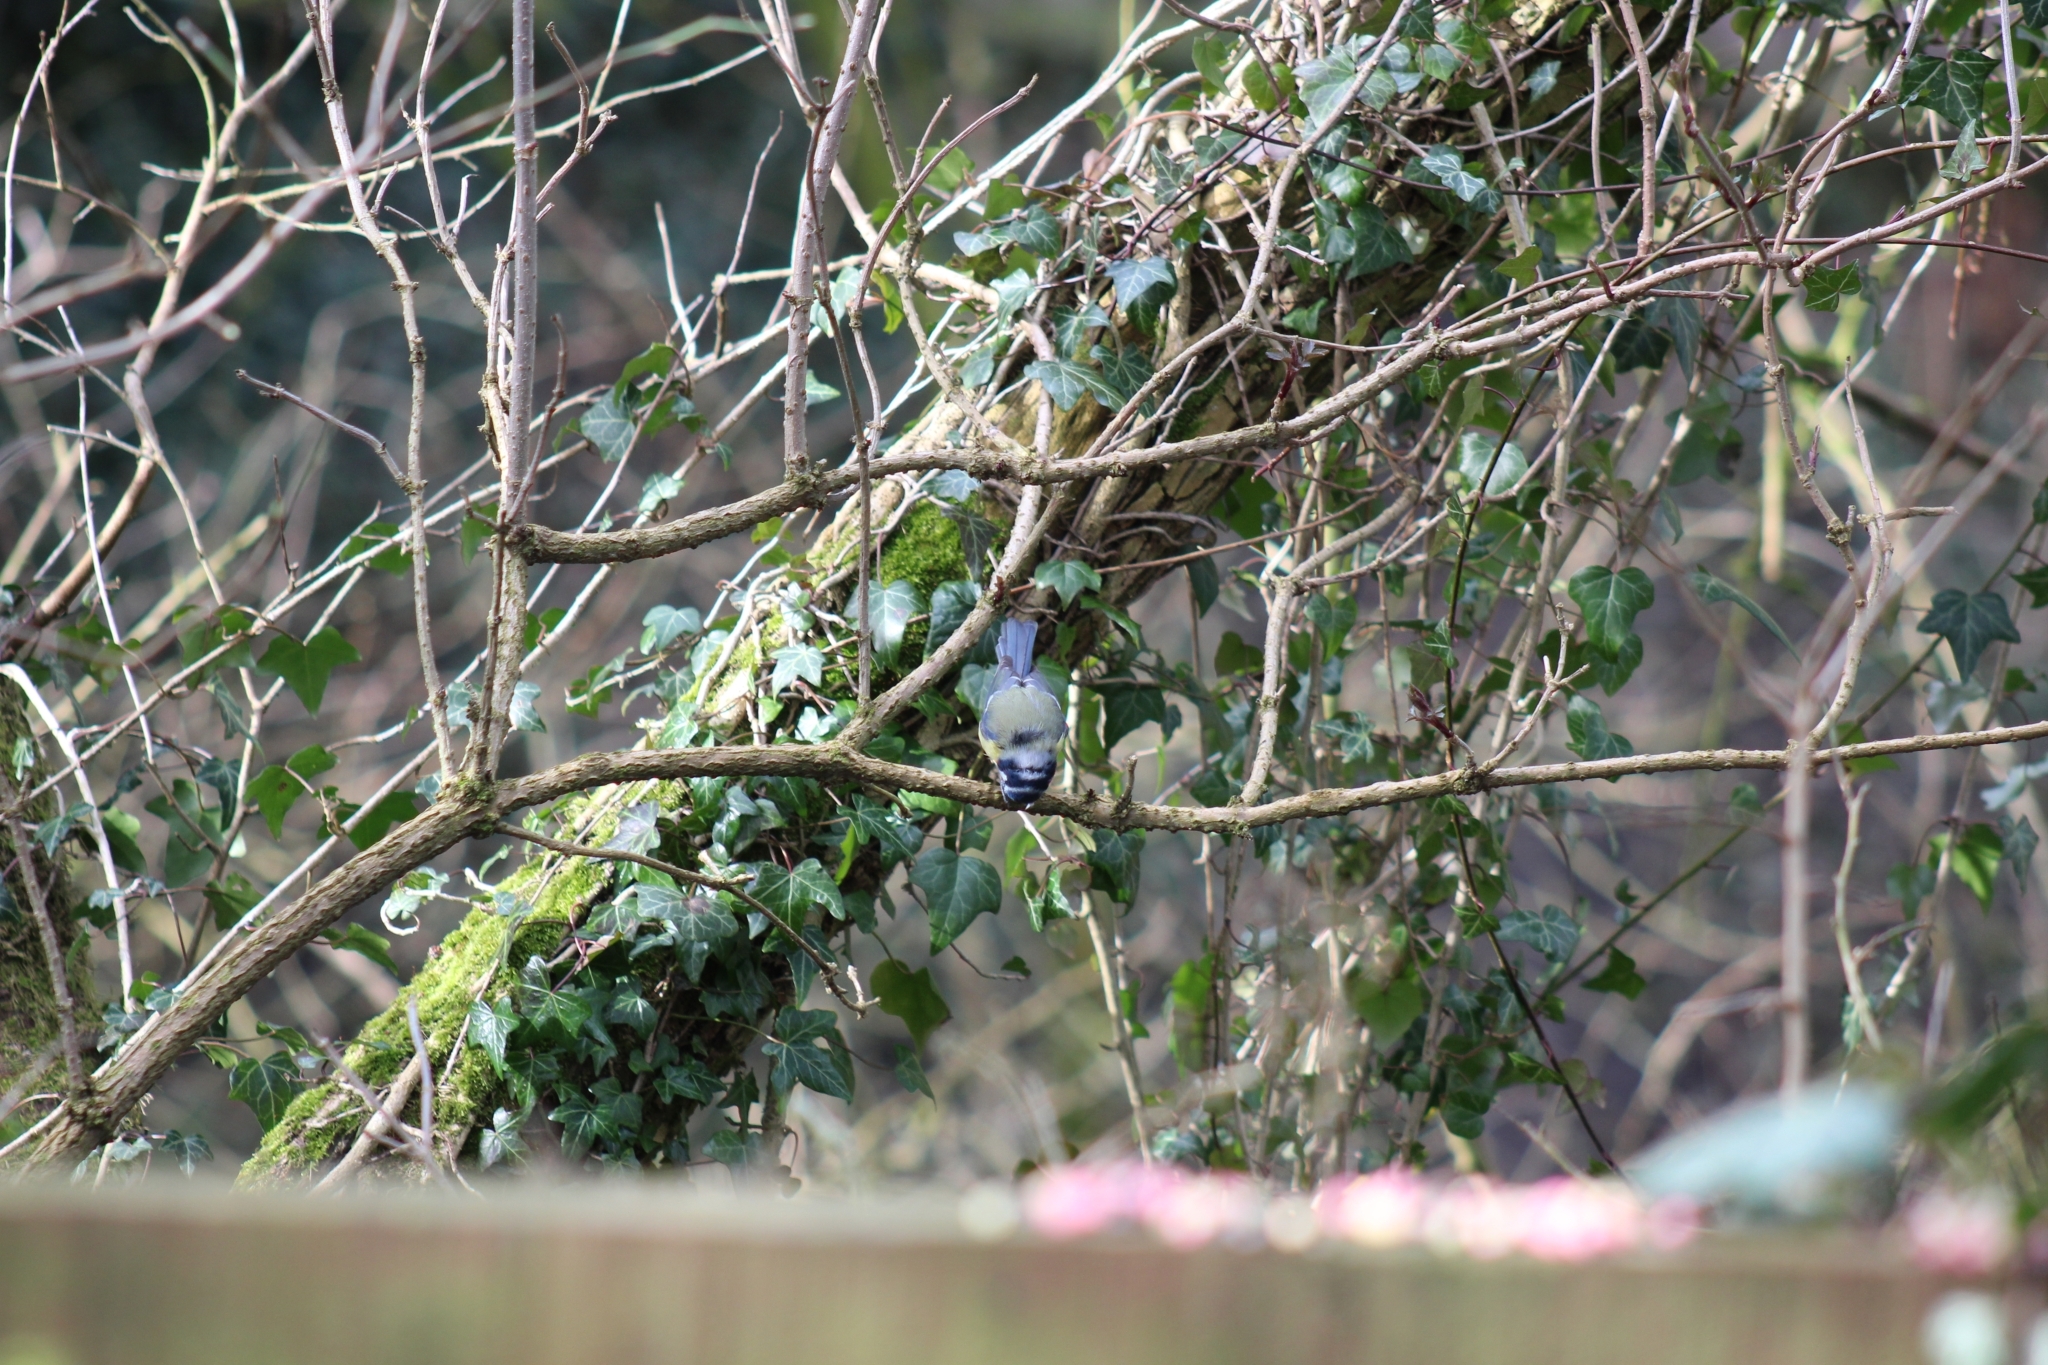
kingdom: Animalia
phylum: Chordata
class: Aves
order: Passeriformes
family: Paridae
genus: Cyanistes
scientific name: Cyanistes caeruleus
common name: Eurasian blue tit
